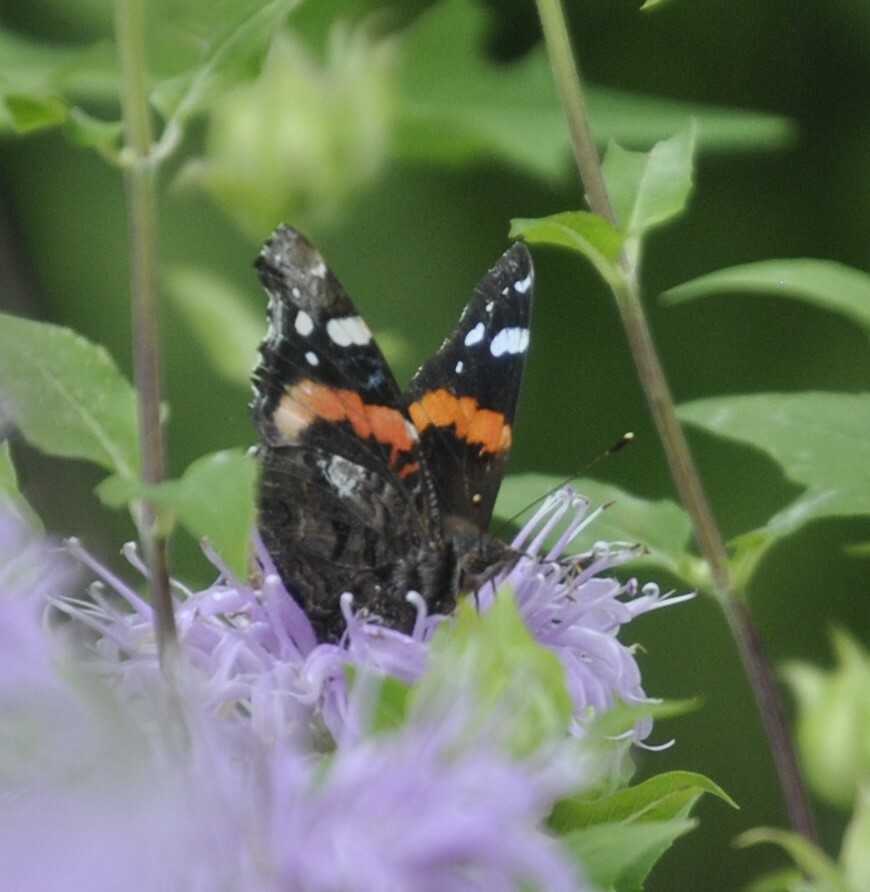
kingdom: Animalia
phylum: Arthropoda
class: Insecta
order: Lepidoptera
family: Nymphalidae
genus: Vanessa
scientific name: Vanessa atalanta
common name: Red admiral
